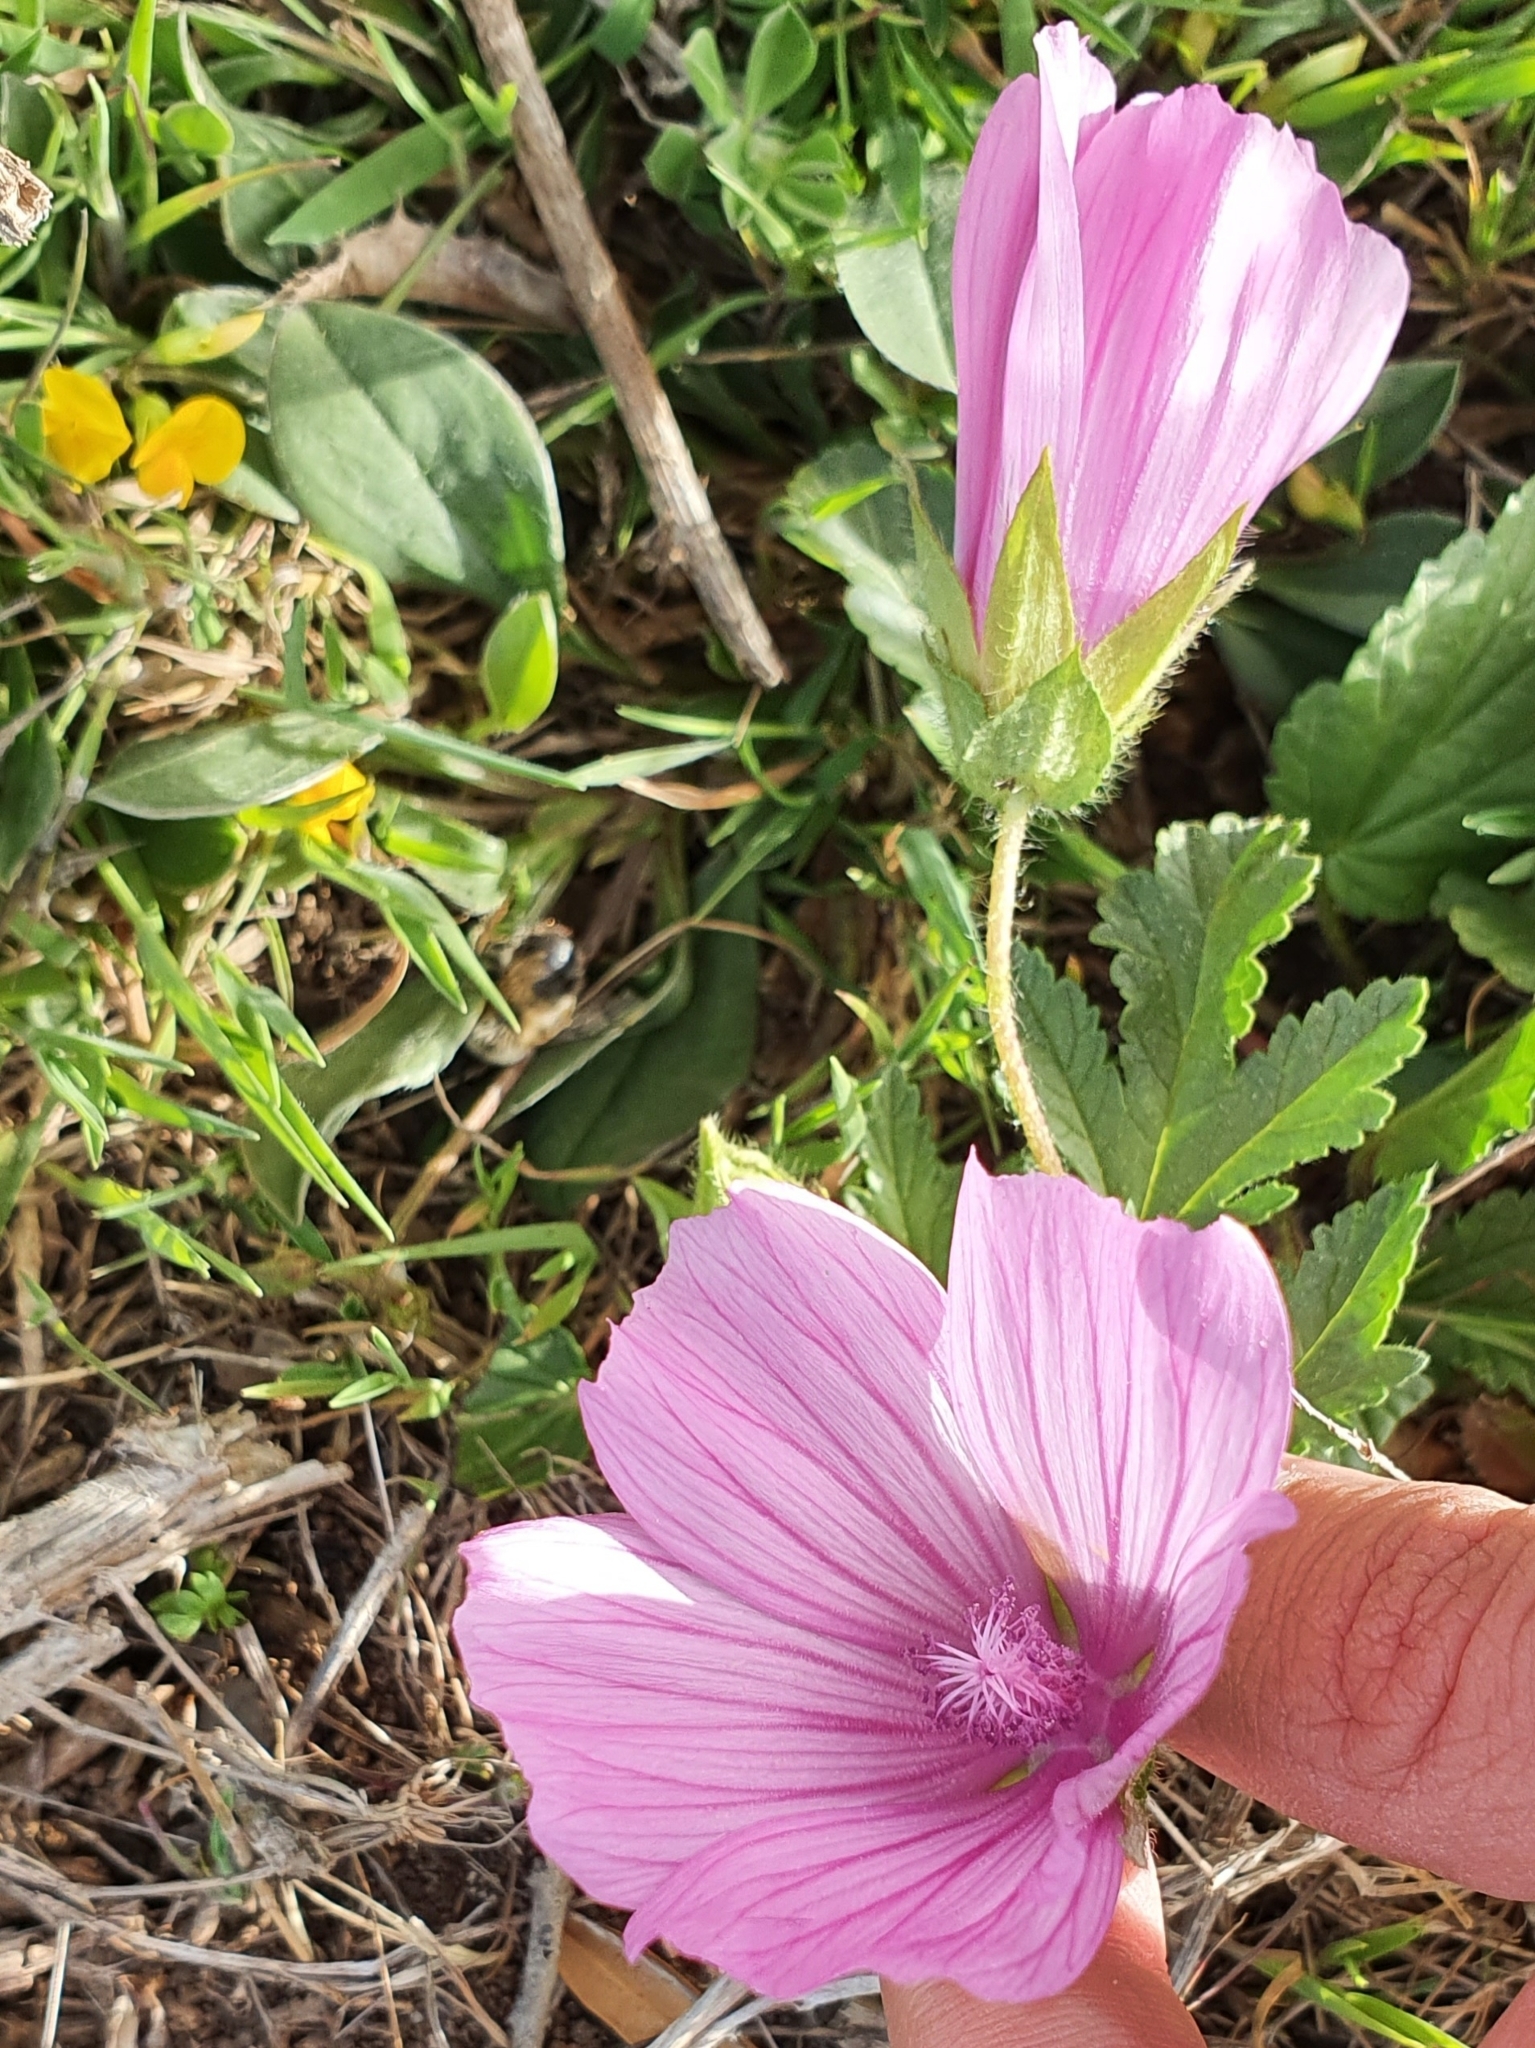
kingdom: Plantae
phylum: Tracheophyta
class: Magnoliopsida
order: Malvales
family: Malvaceae
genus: Malope
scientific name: Malope malacoides
